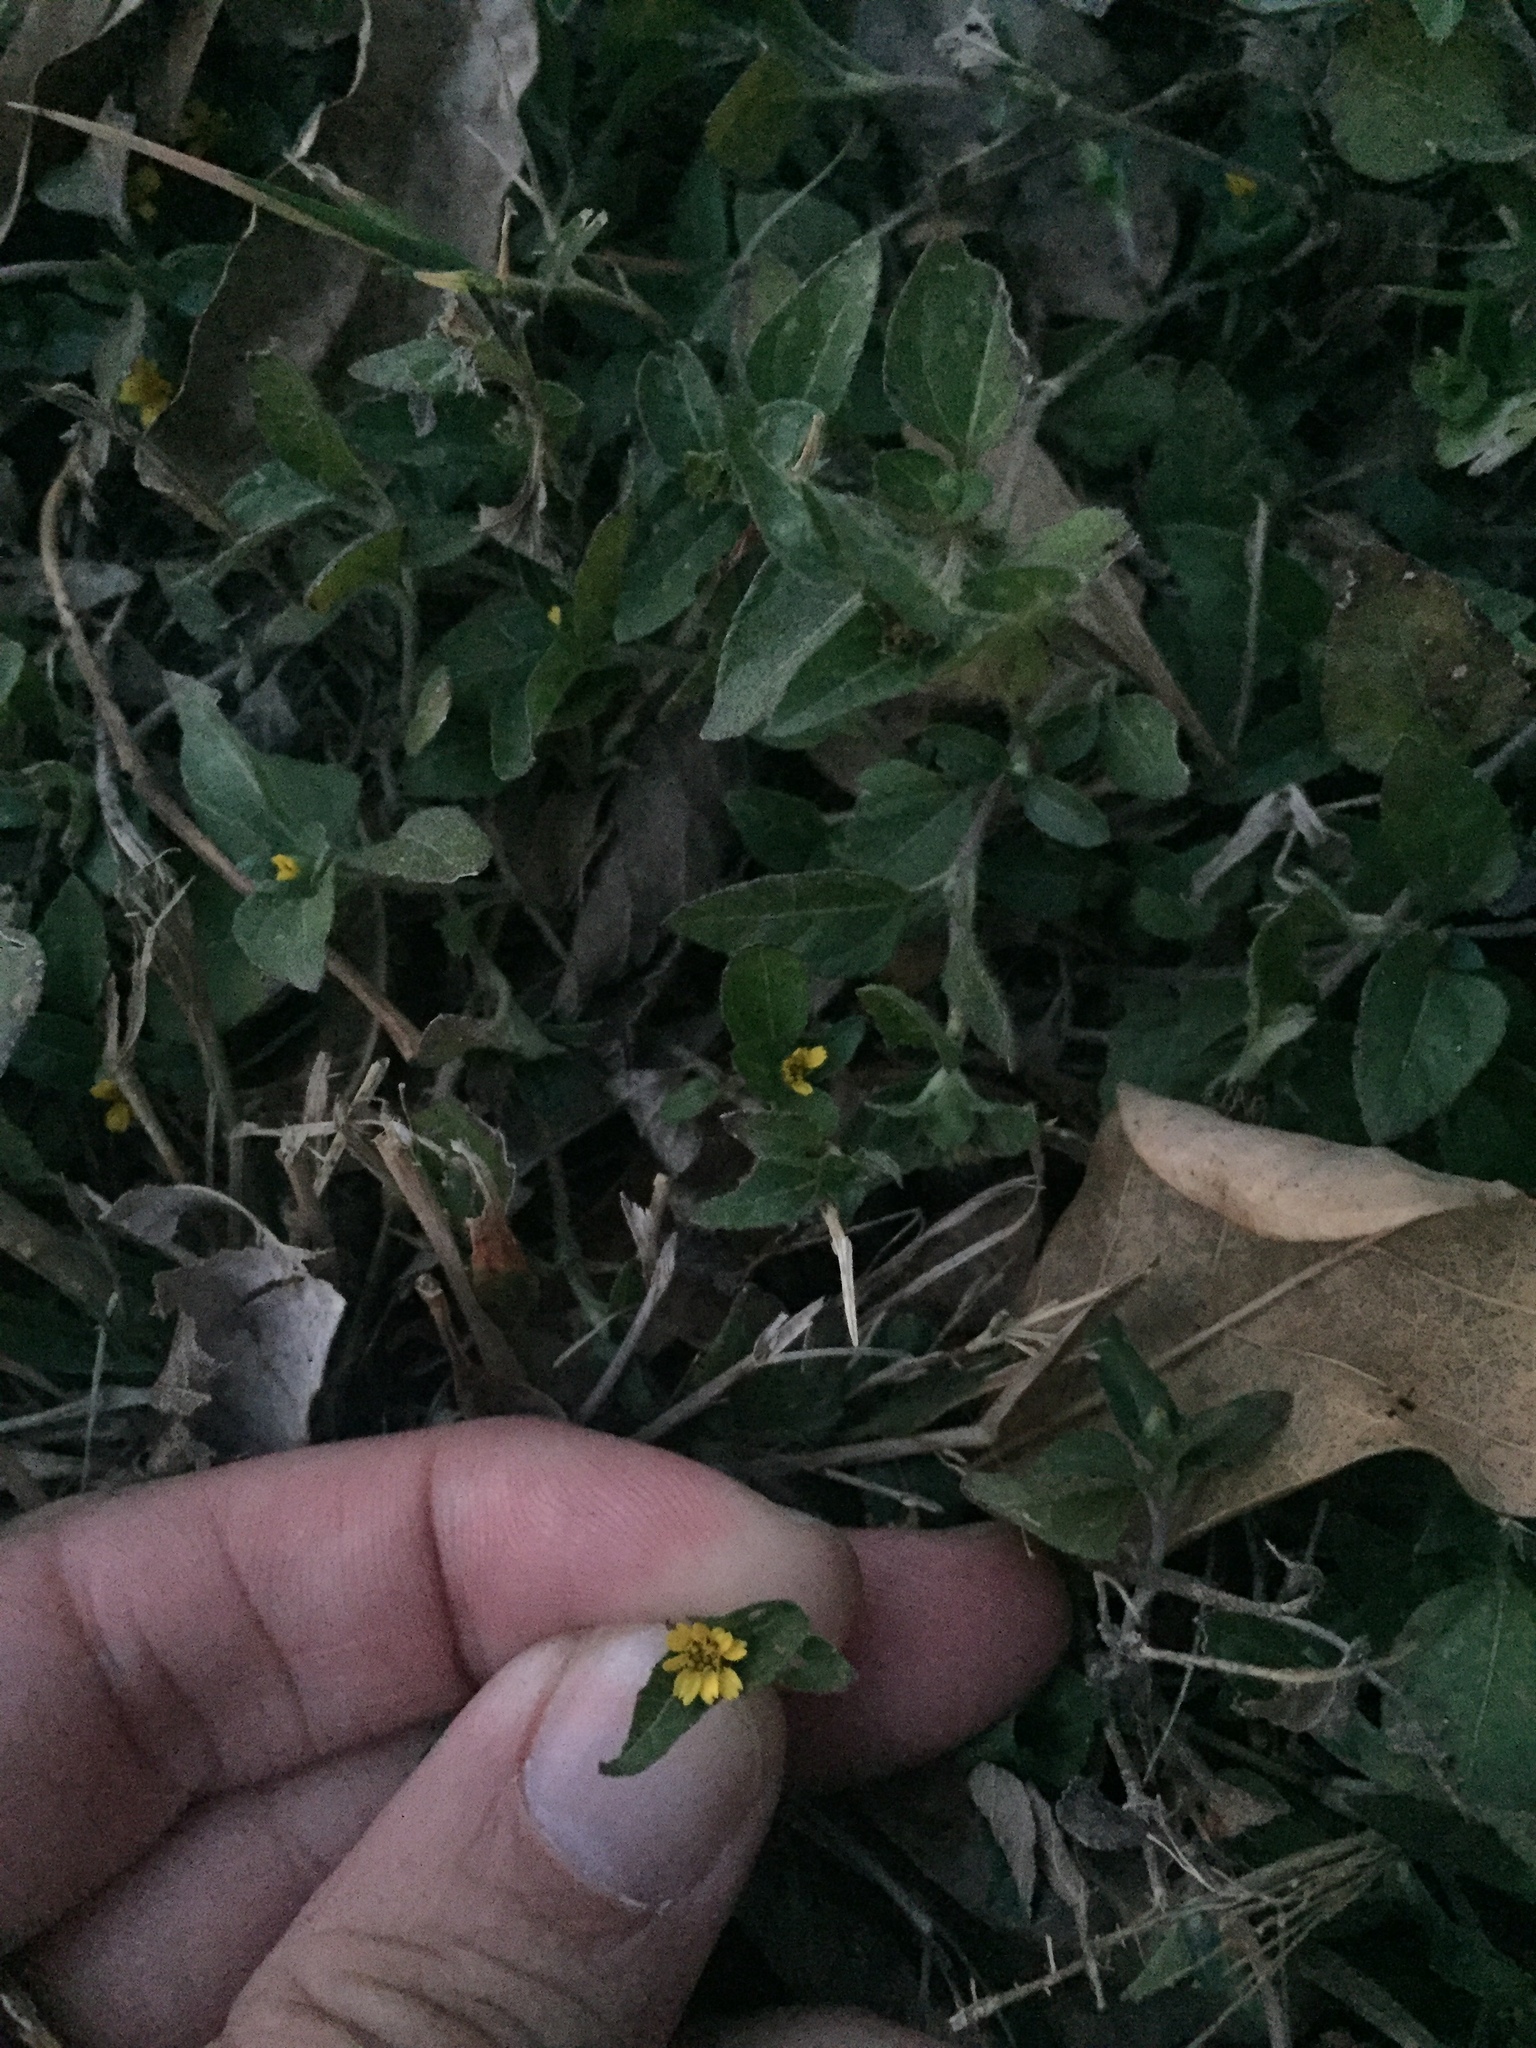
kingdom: Plantae
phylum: Tracheophyta
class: Magnoliopsida
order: Asterales
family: Asteraceae
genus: Calyptocarpus
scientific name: Calyptocarpus vialis
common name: Straggler daisy
